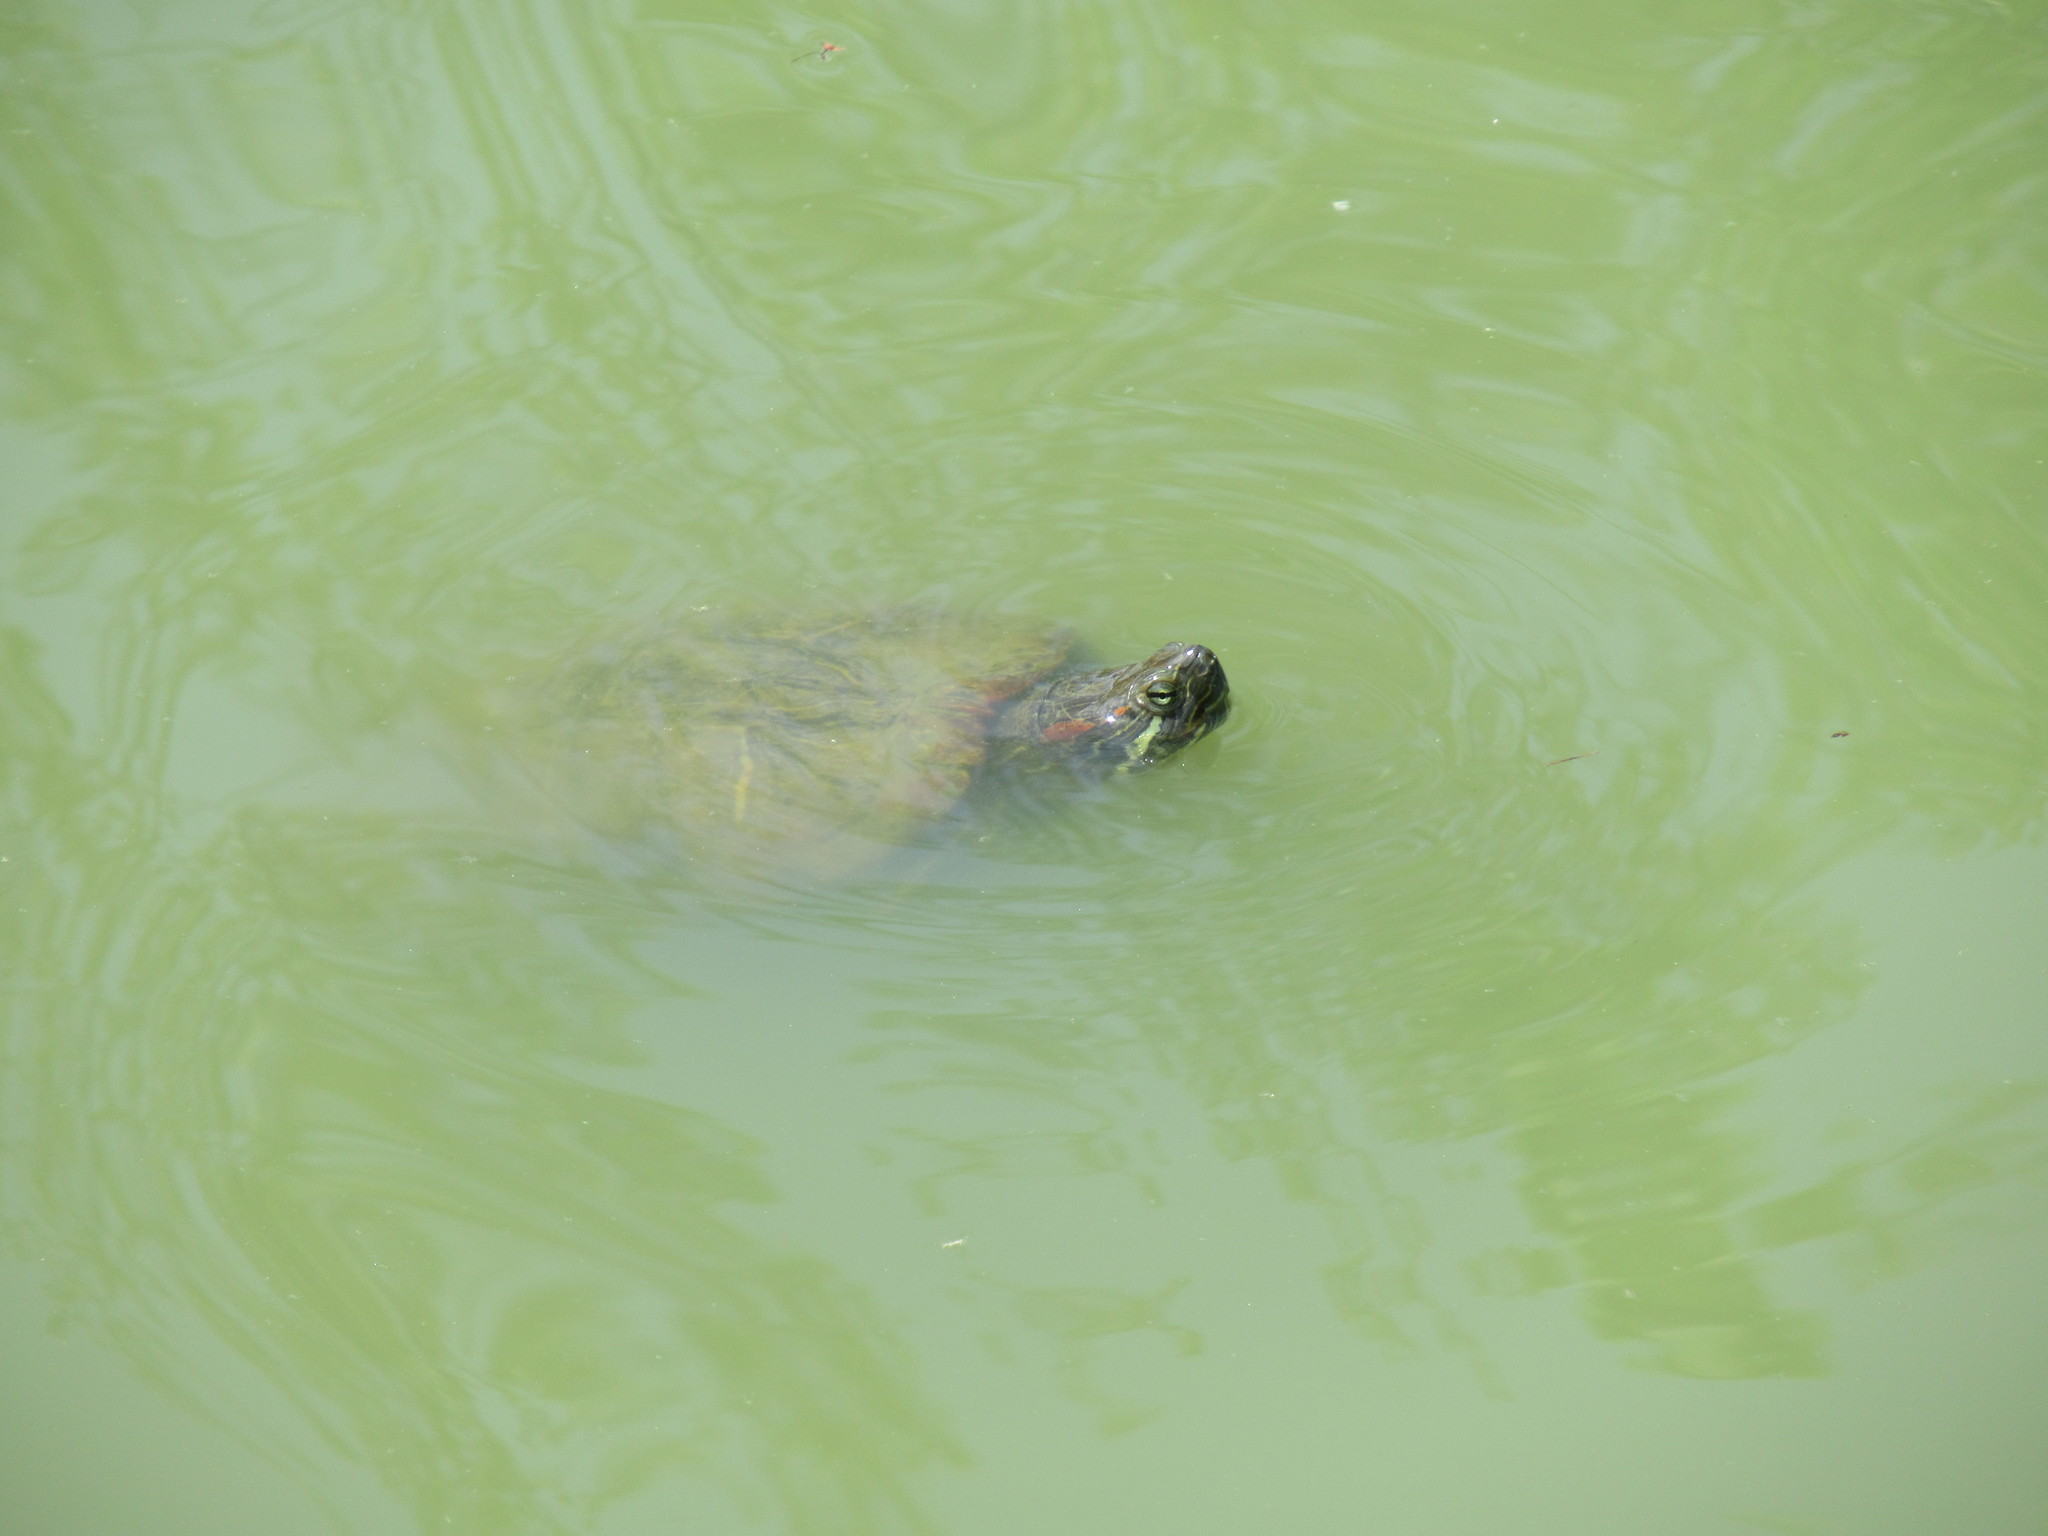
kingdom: Animalia
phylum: Chordata
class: Testudines
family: Emydidae
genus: Trachemys
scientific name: Trachemys scripta
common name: Slider
